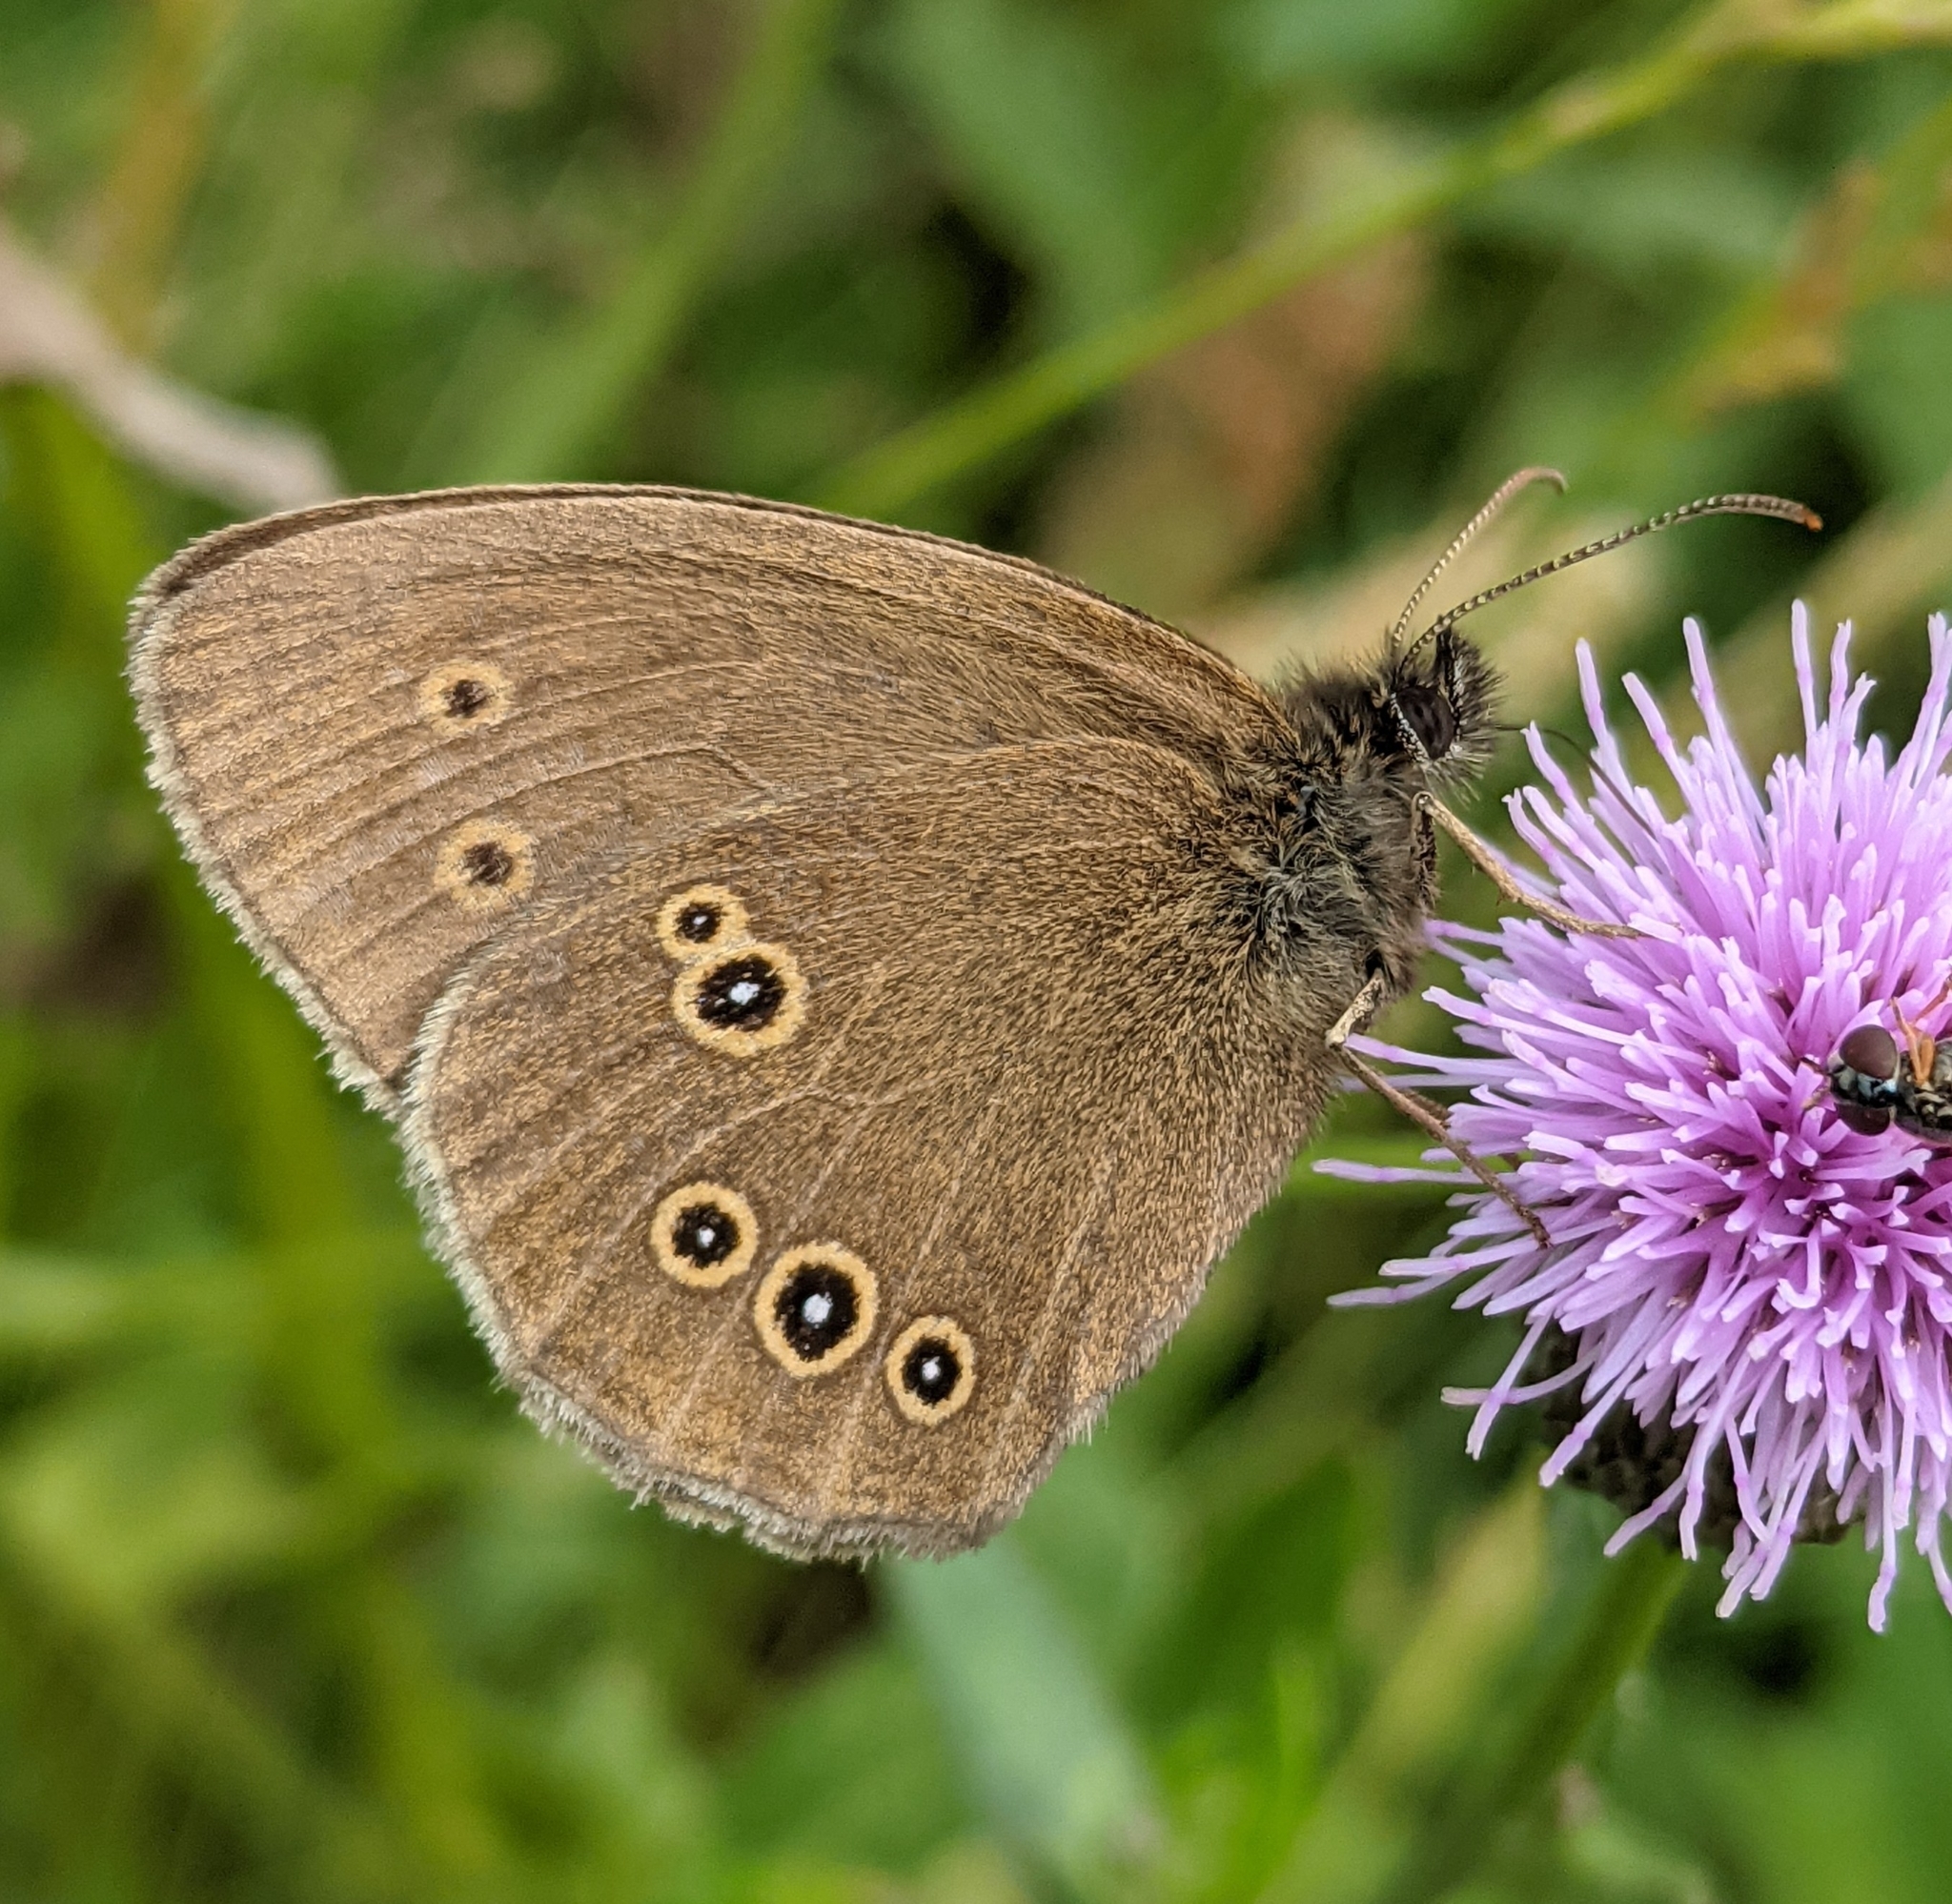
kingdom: Animalia
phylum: Arthropoda
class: Insecta
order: Lepidoptera
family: Nymphalidae
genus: Aphantopus
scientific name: Aphantopus hyperantus
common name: Ringlet
